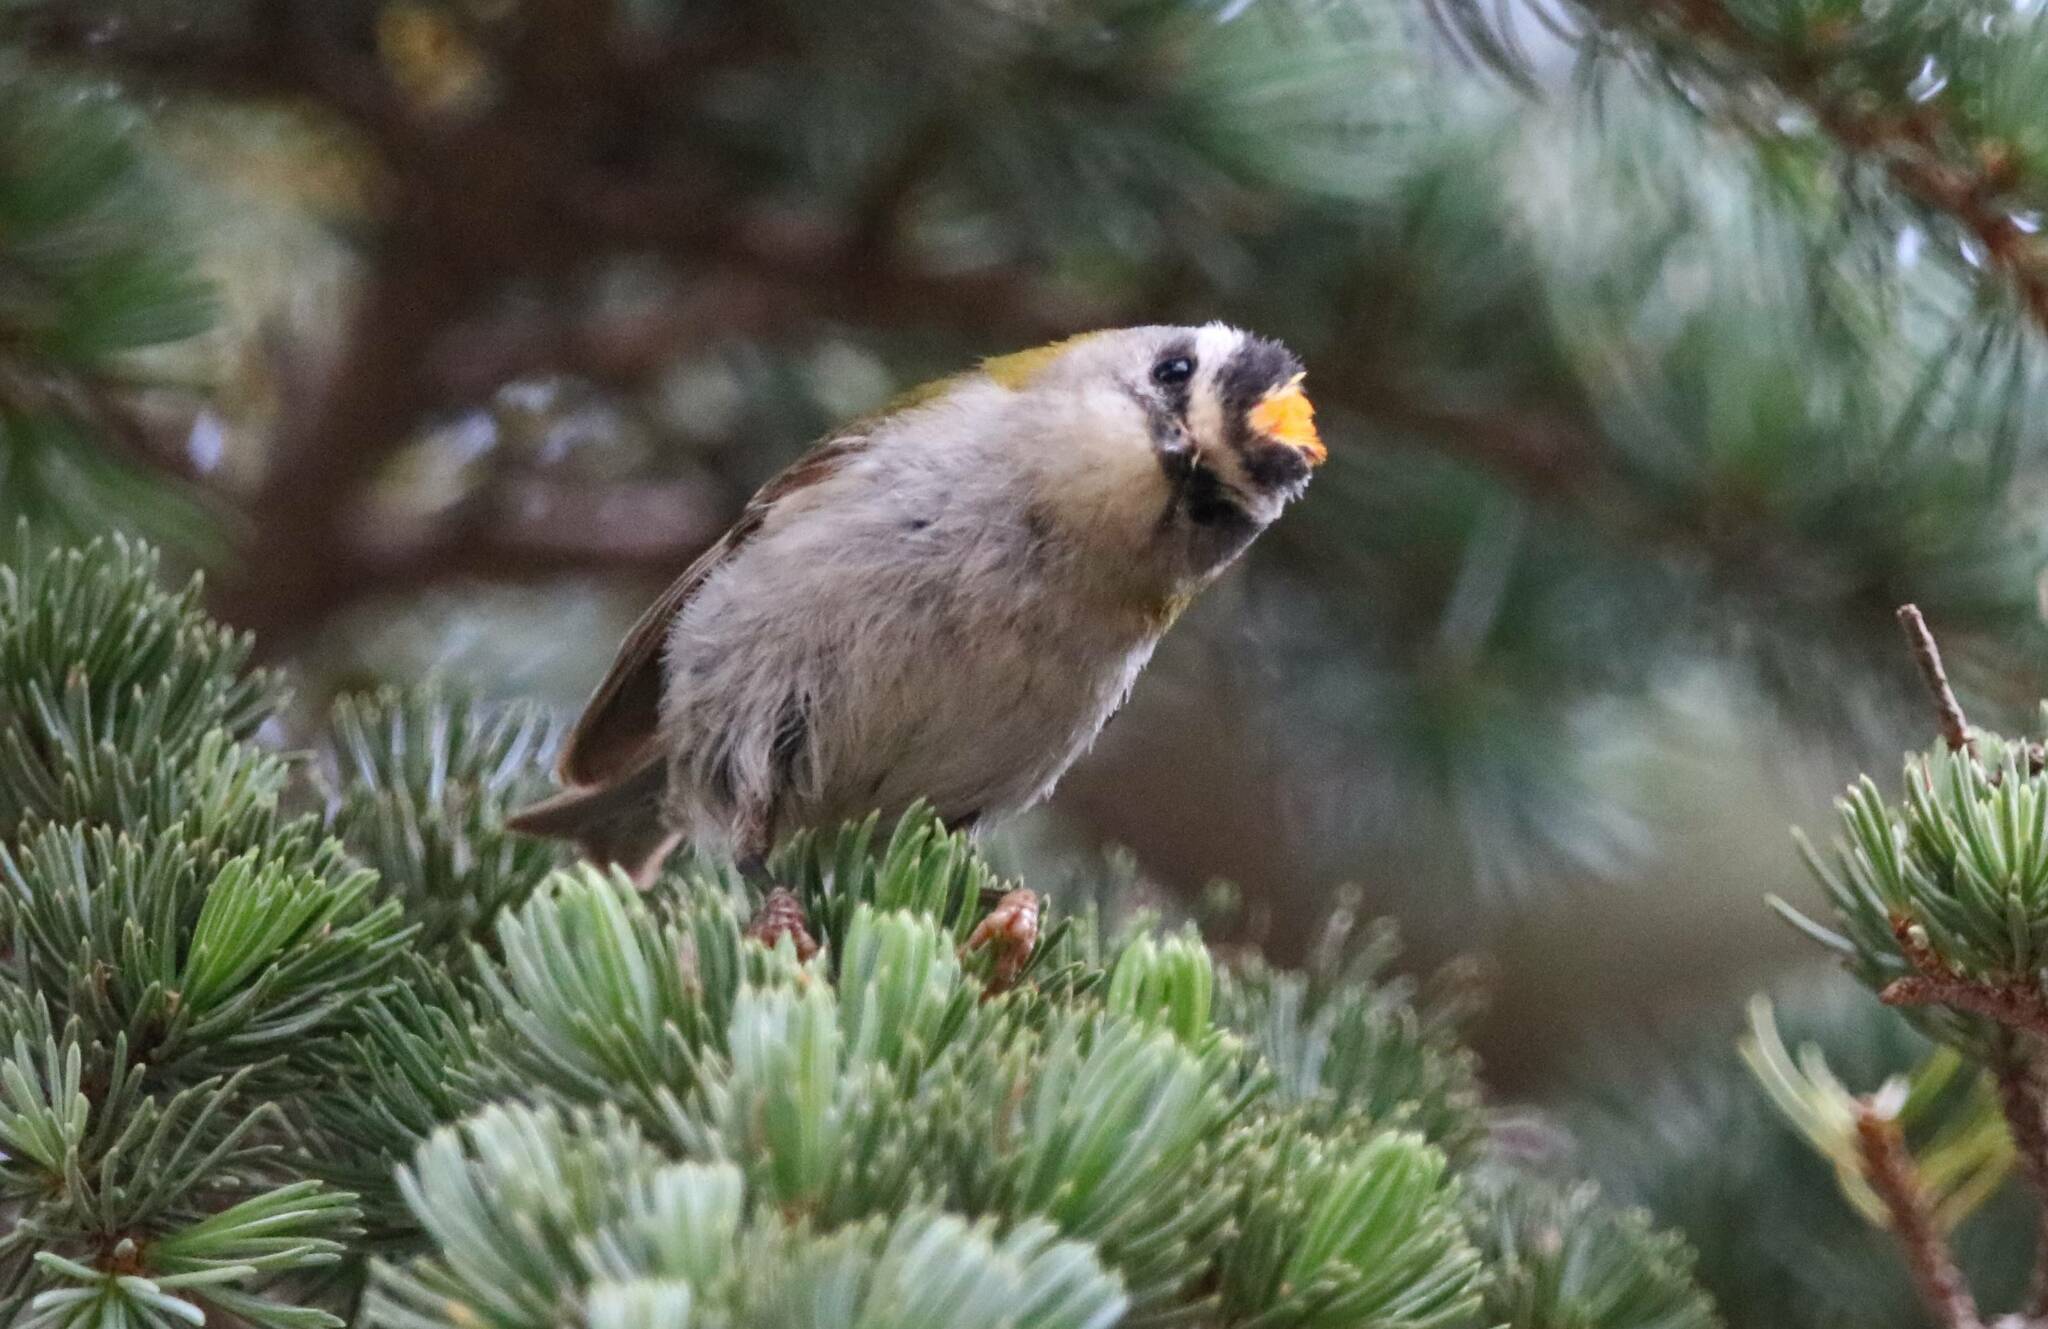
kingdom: Animalia
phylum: Chordata
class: Aves
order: Passeriformes
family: Regulidae
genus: Regulus
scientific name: Regulus ignicapilla
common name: Firecrest
